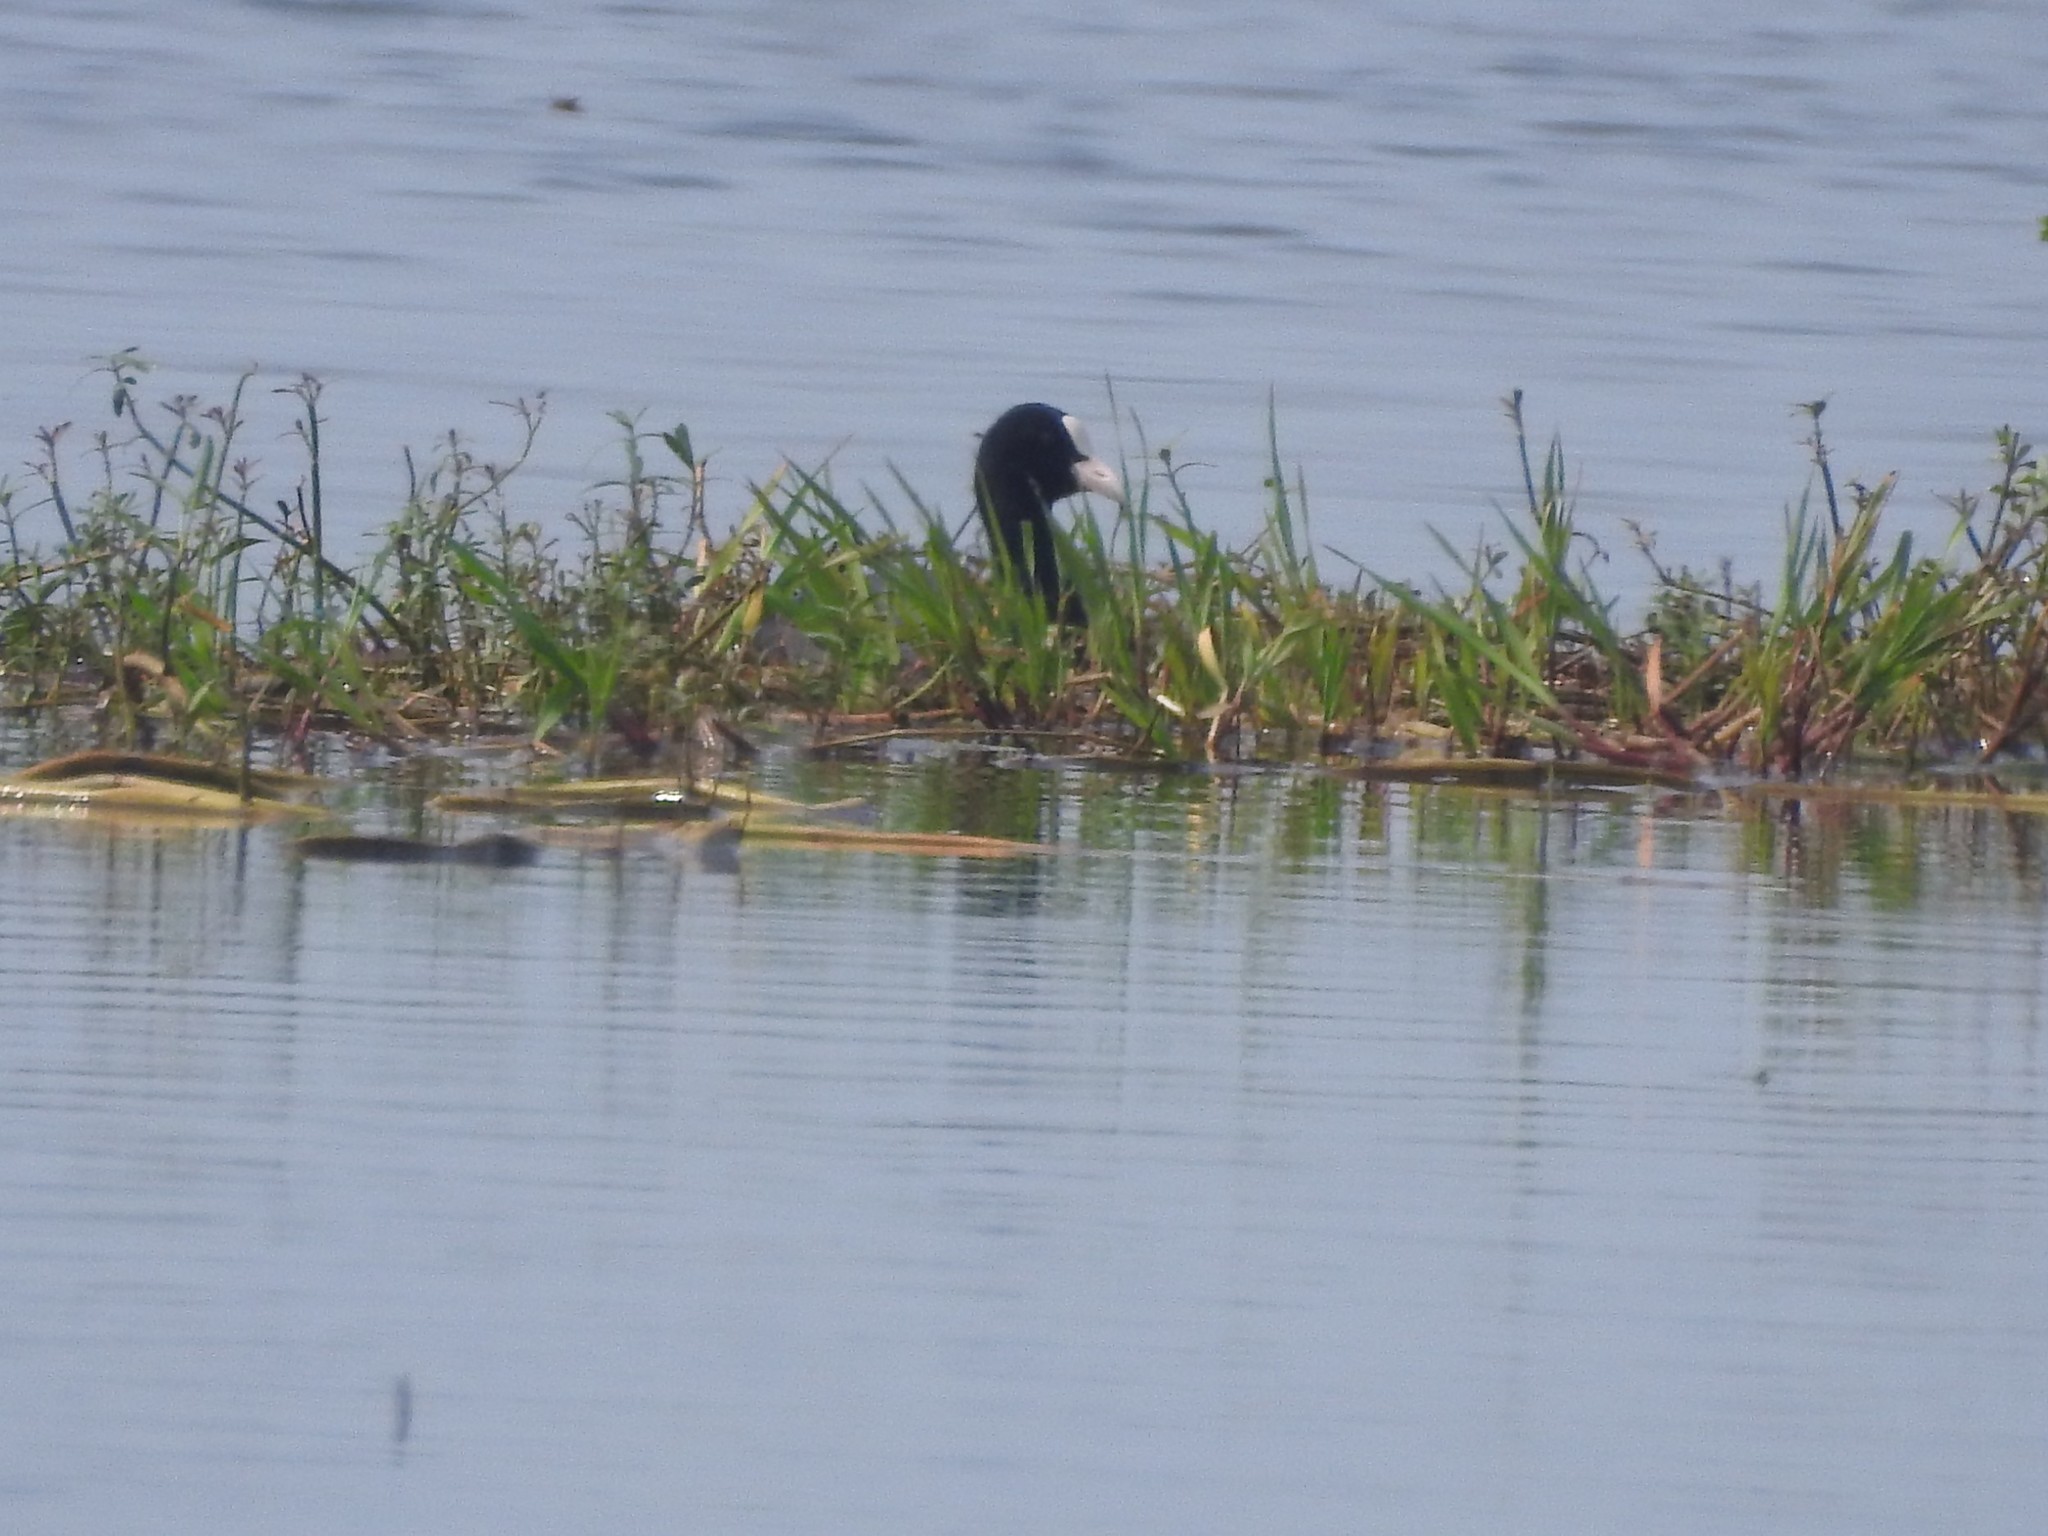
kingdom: Animalia
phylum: Chordata
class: Aves
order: Gruiformes
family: Rallidae
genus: Fulica
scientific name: Fulica atra
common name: Eurasian coot
